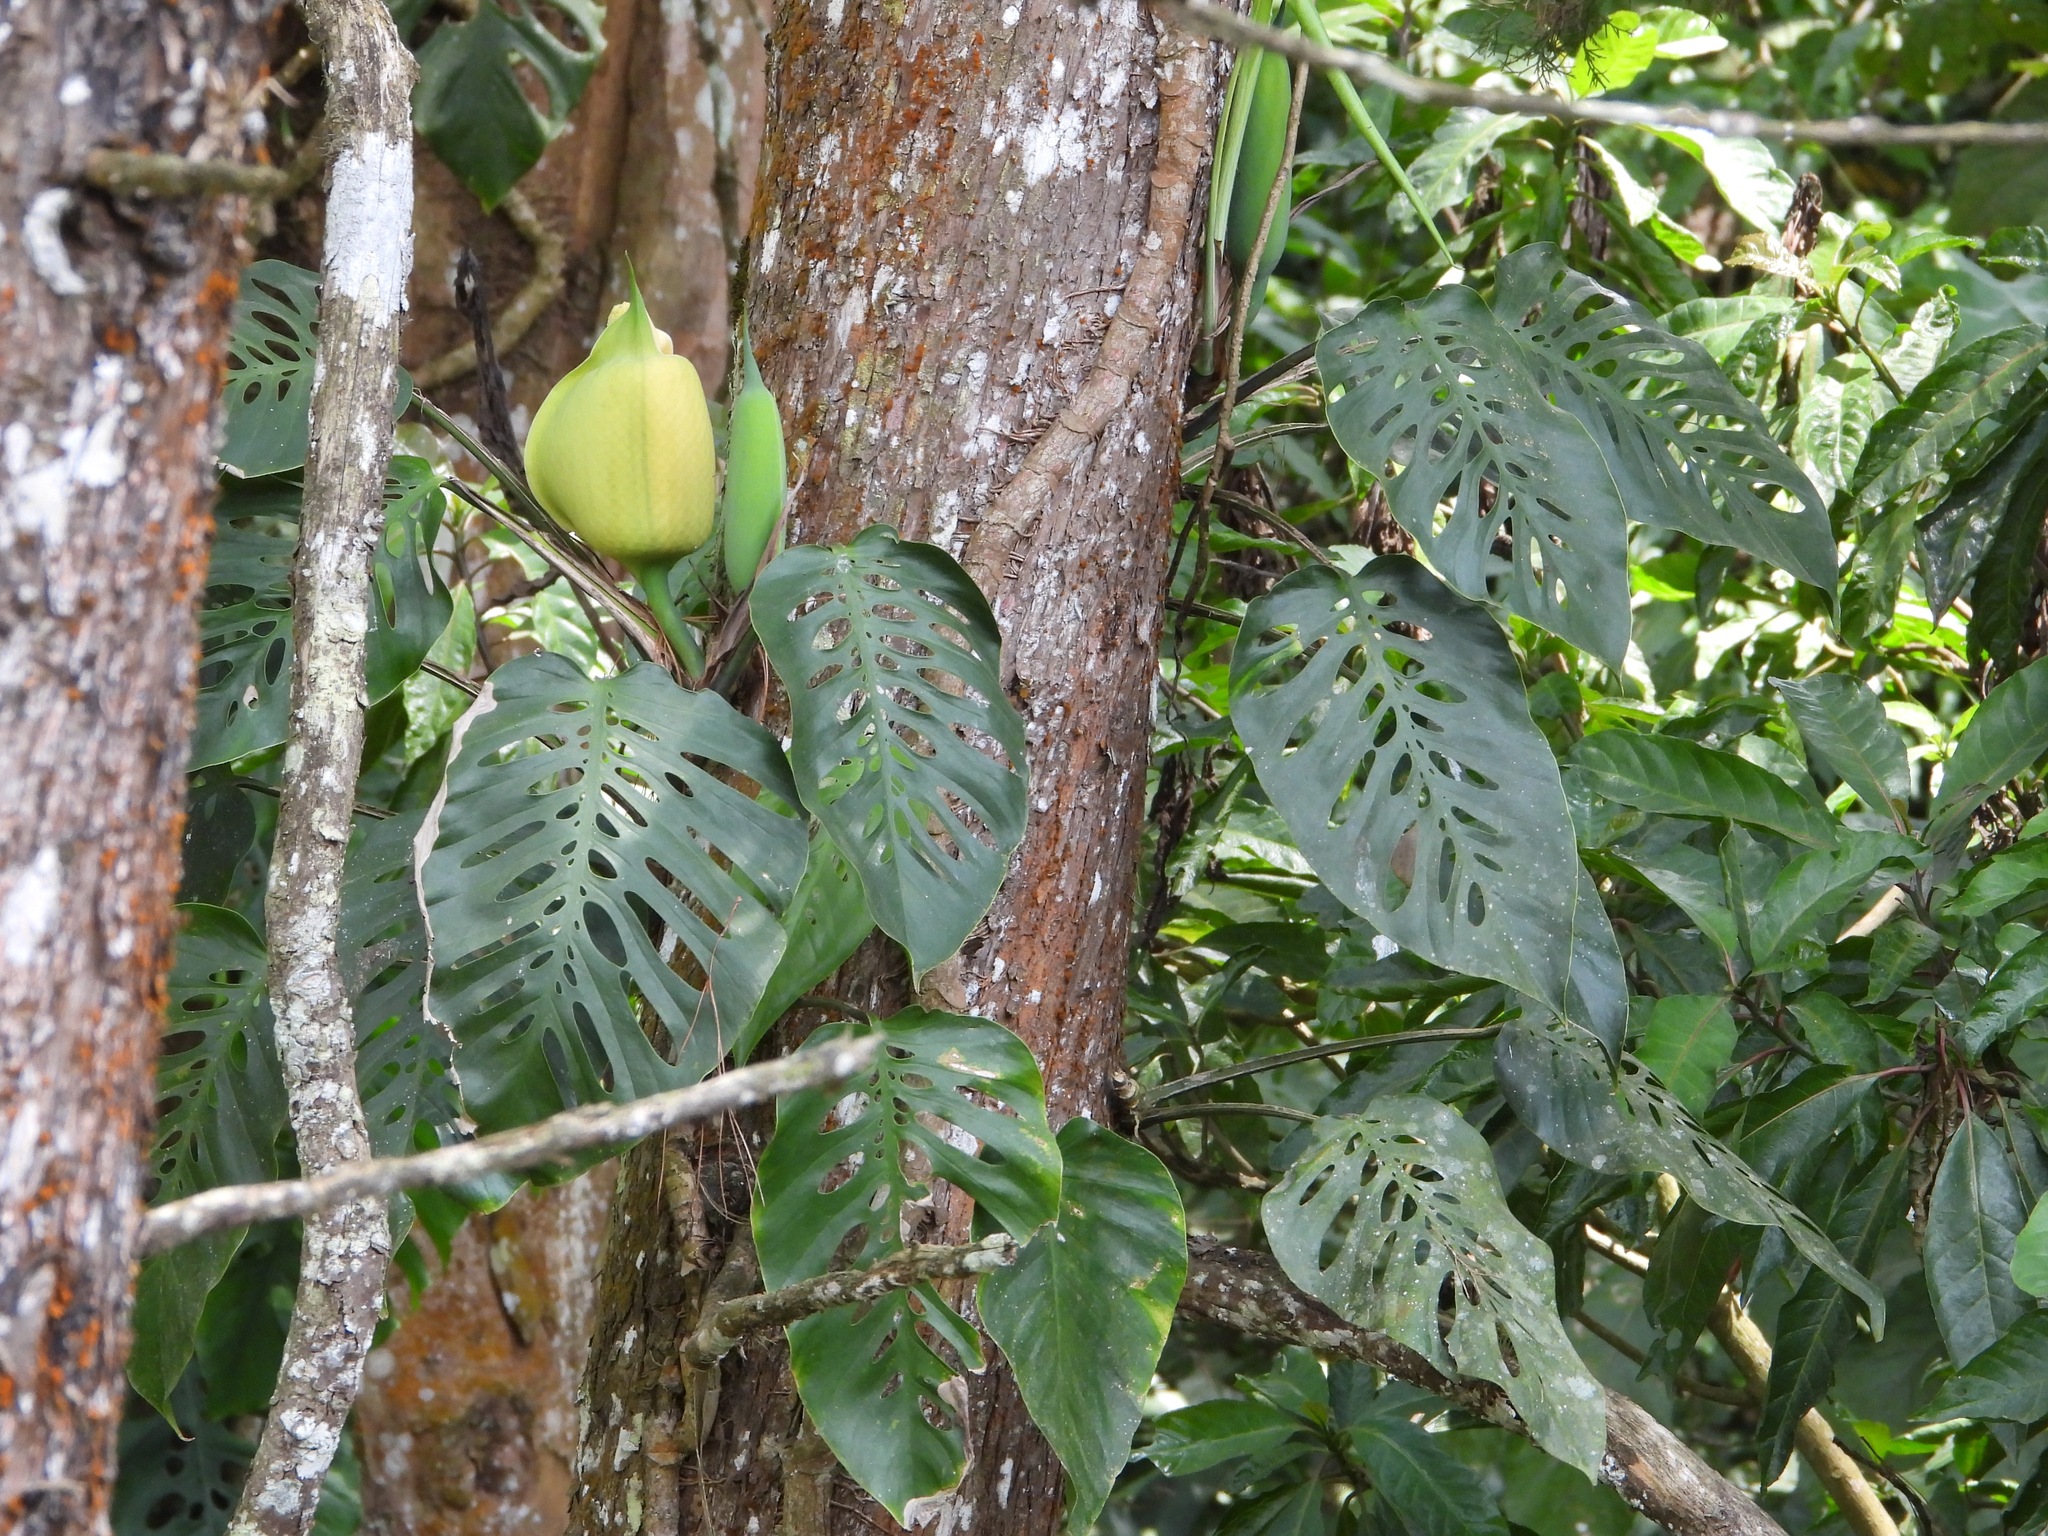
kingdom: Plantae
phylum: Tracheophyta
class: Liliopsida
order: Alismatales
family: Araceae
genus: Monstera
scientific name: Monstera siltepecana
